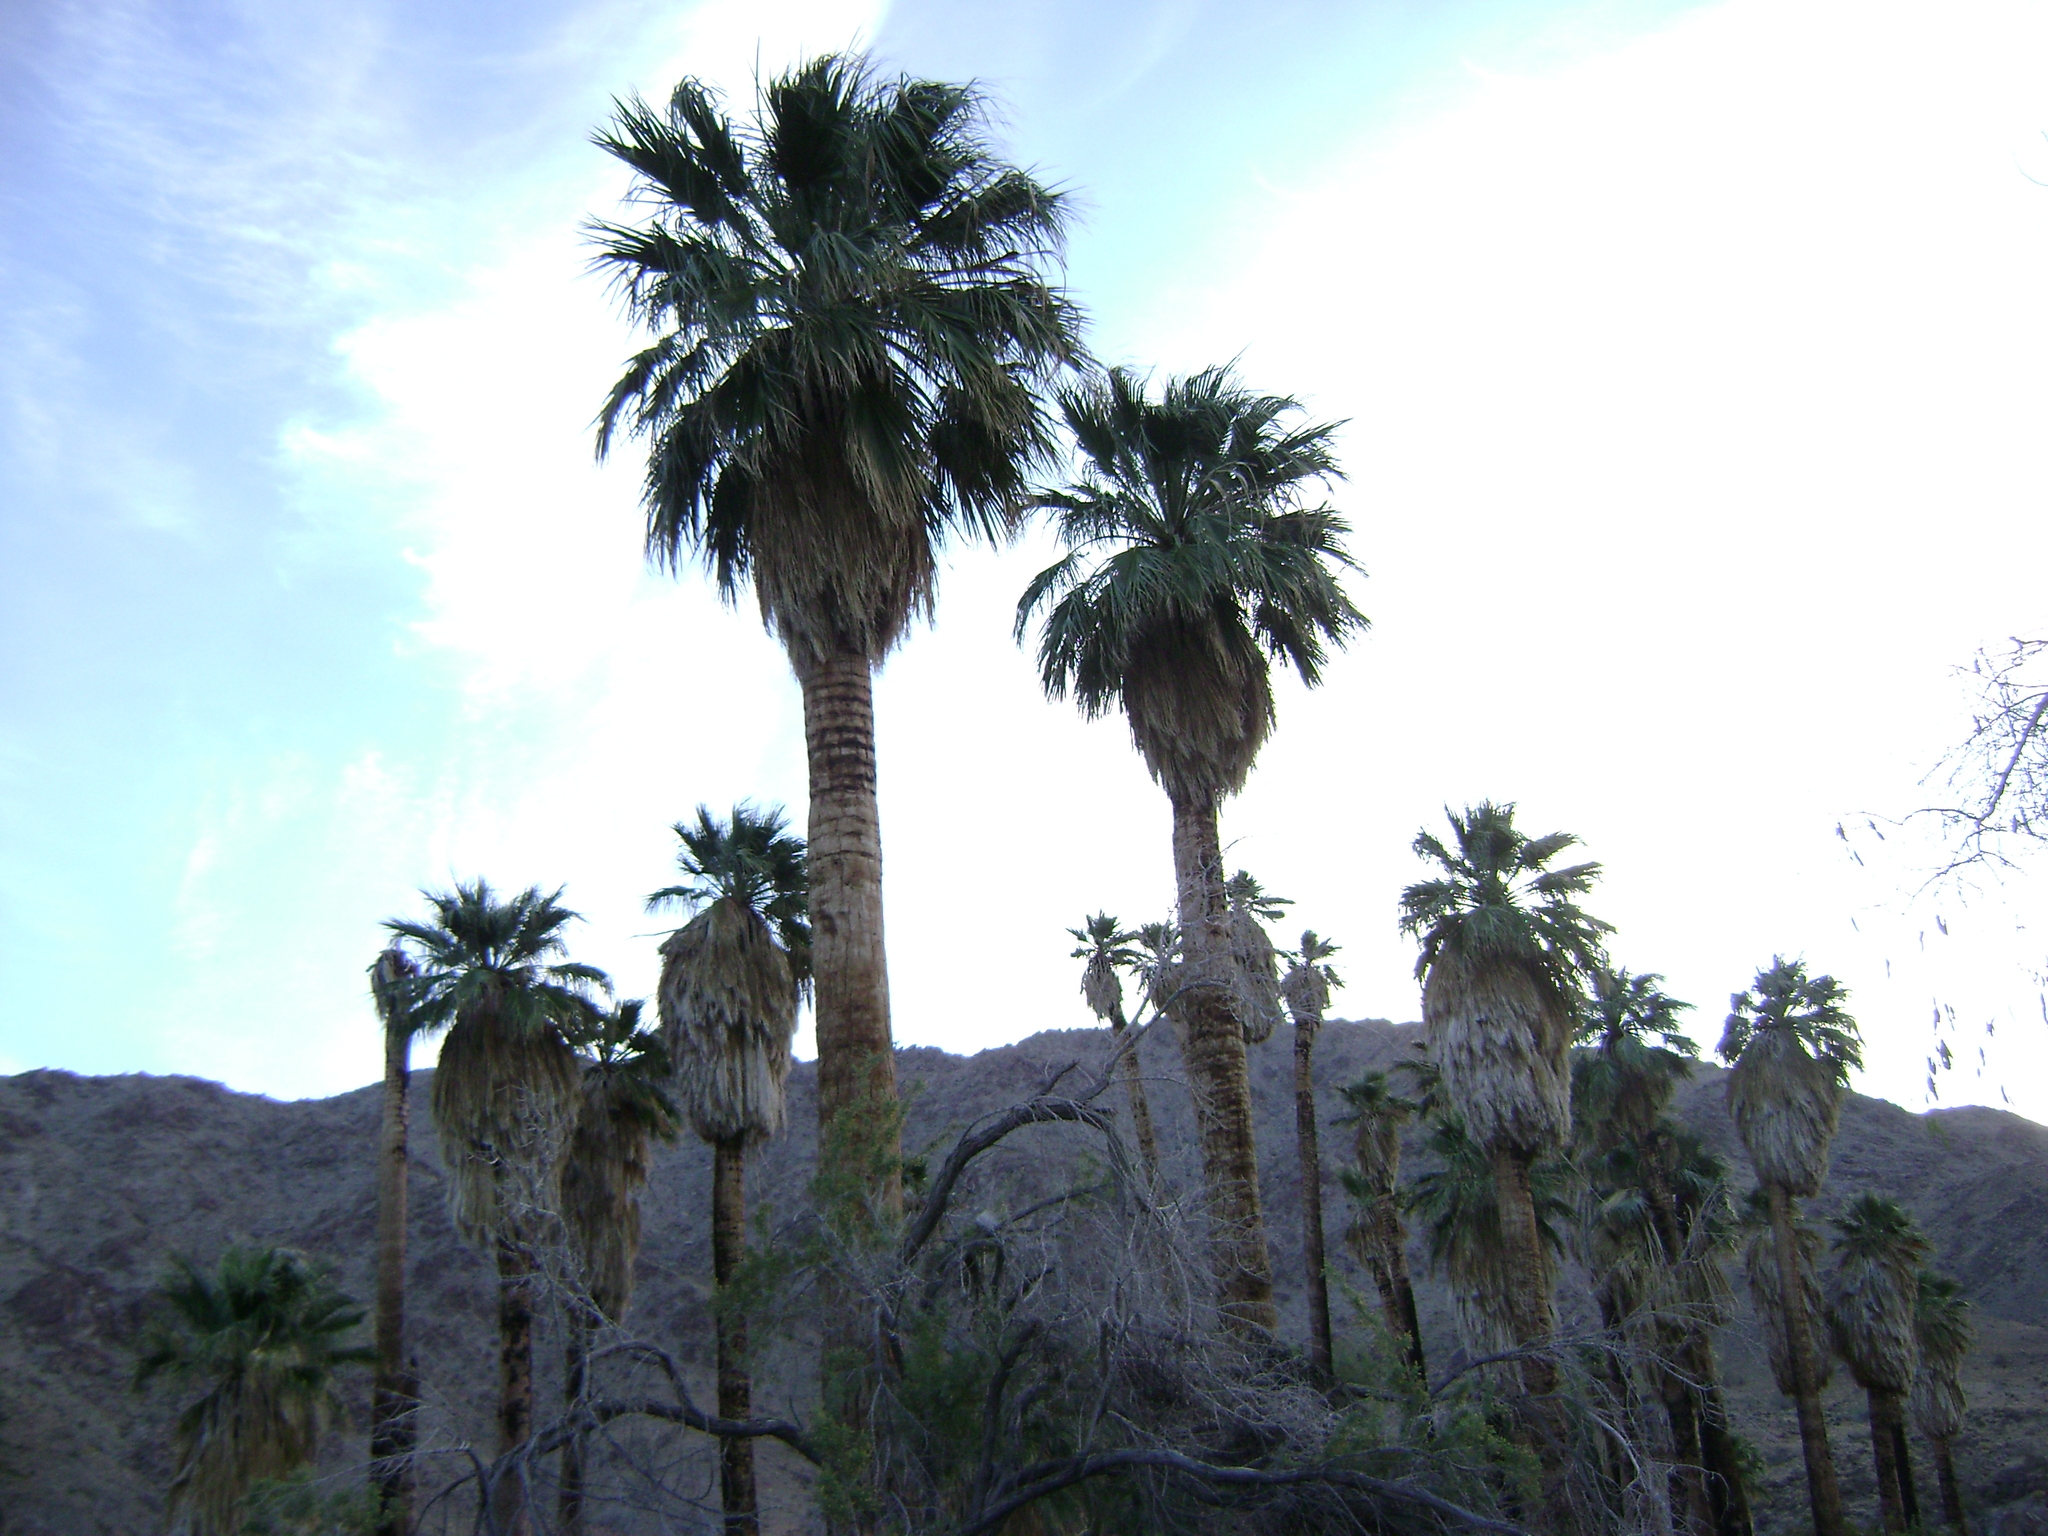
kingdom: Plantae
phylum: Tracheophyta
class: Liliopsida
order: Arecales
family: Arecaceae
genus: Washingtonia
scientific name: Washingtonia filifera
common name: California fan palm
